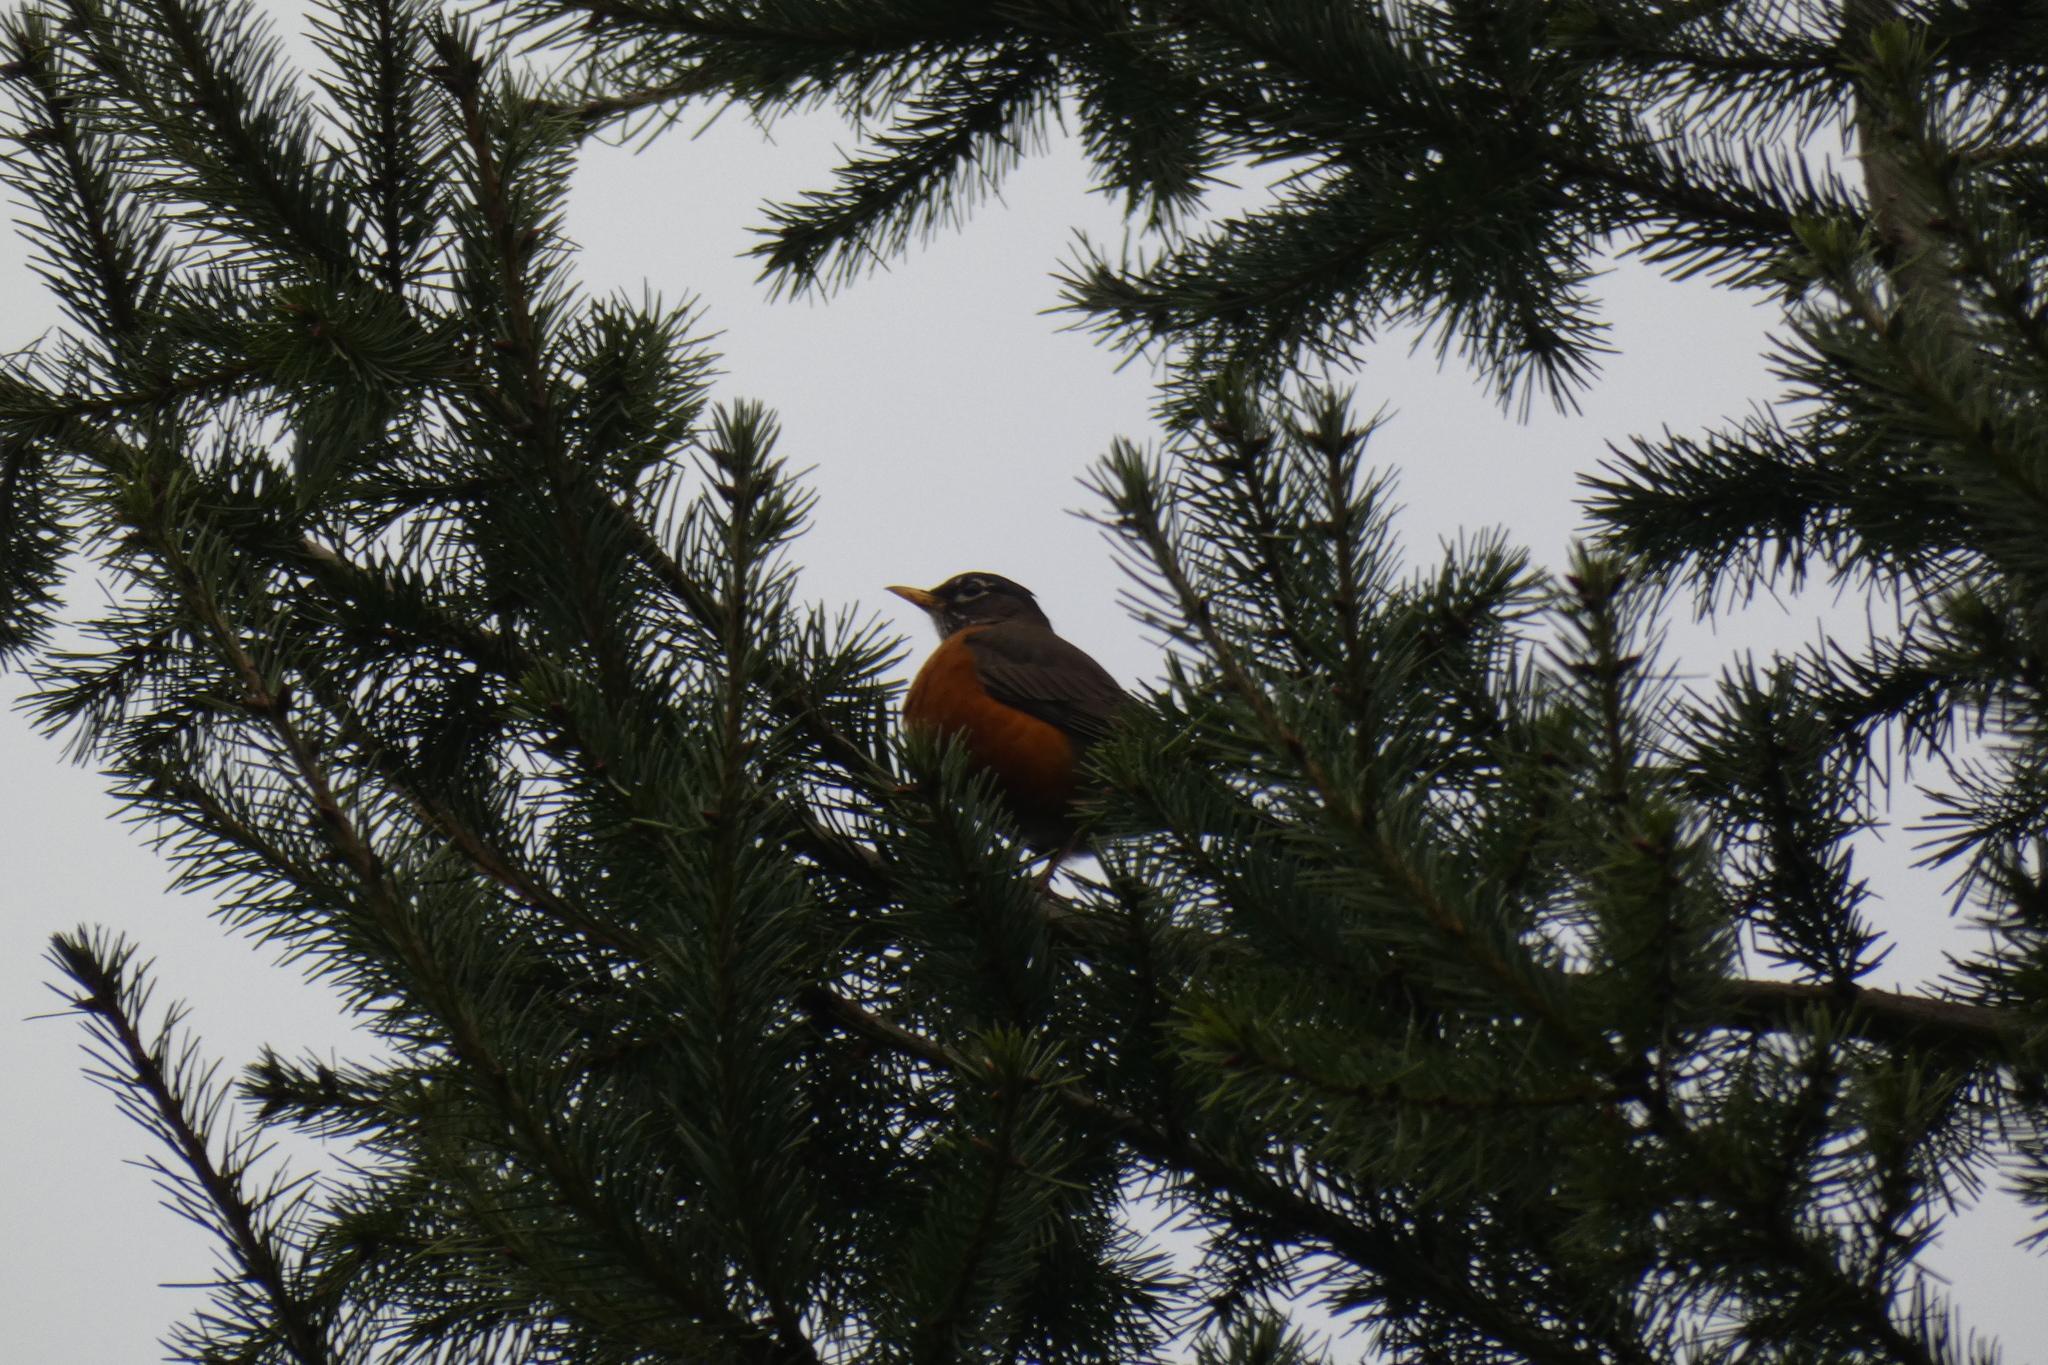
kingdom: Animalia
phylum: Chordata
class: Aves
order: Passeriformes
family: Turdidae
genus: Turdus
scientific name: Turdus migratorius
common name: American robin
